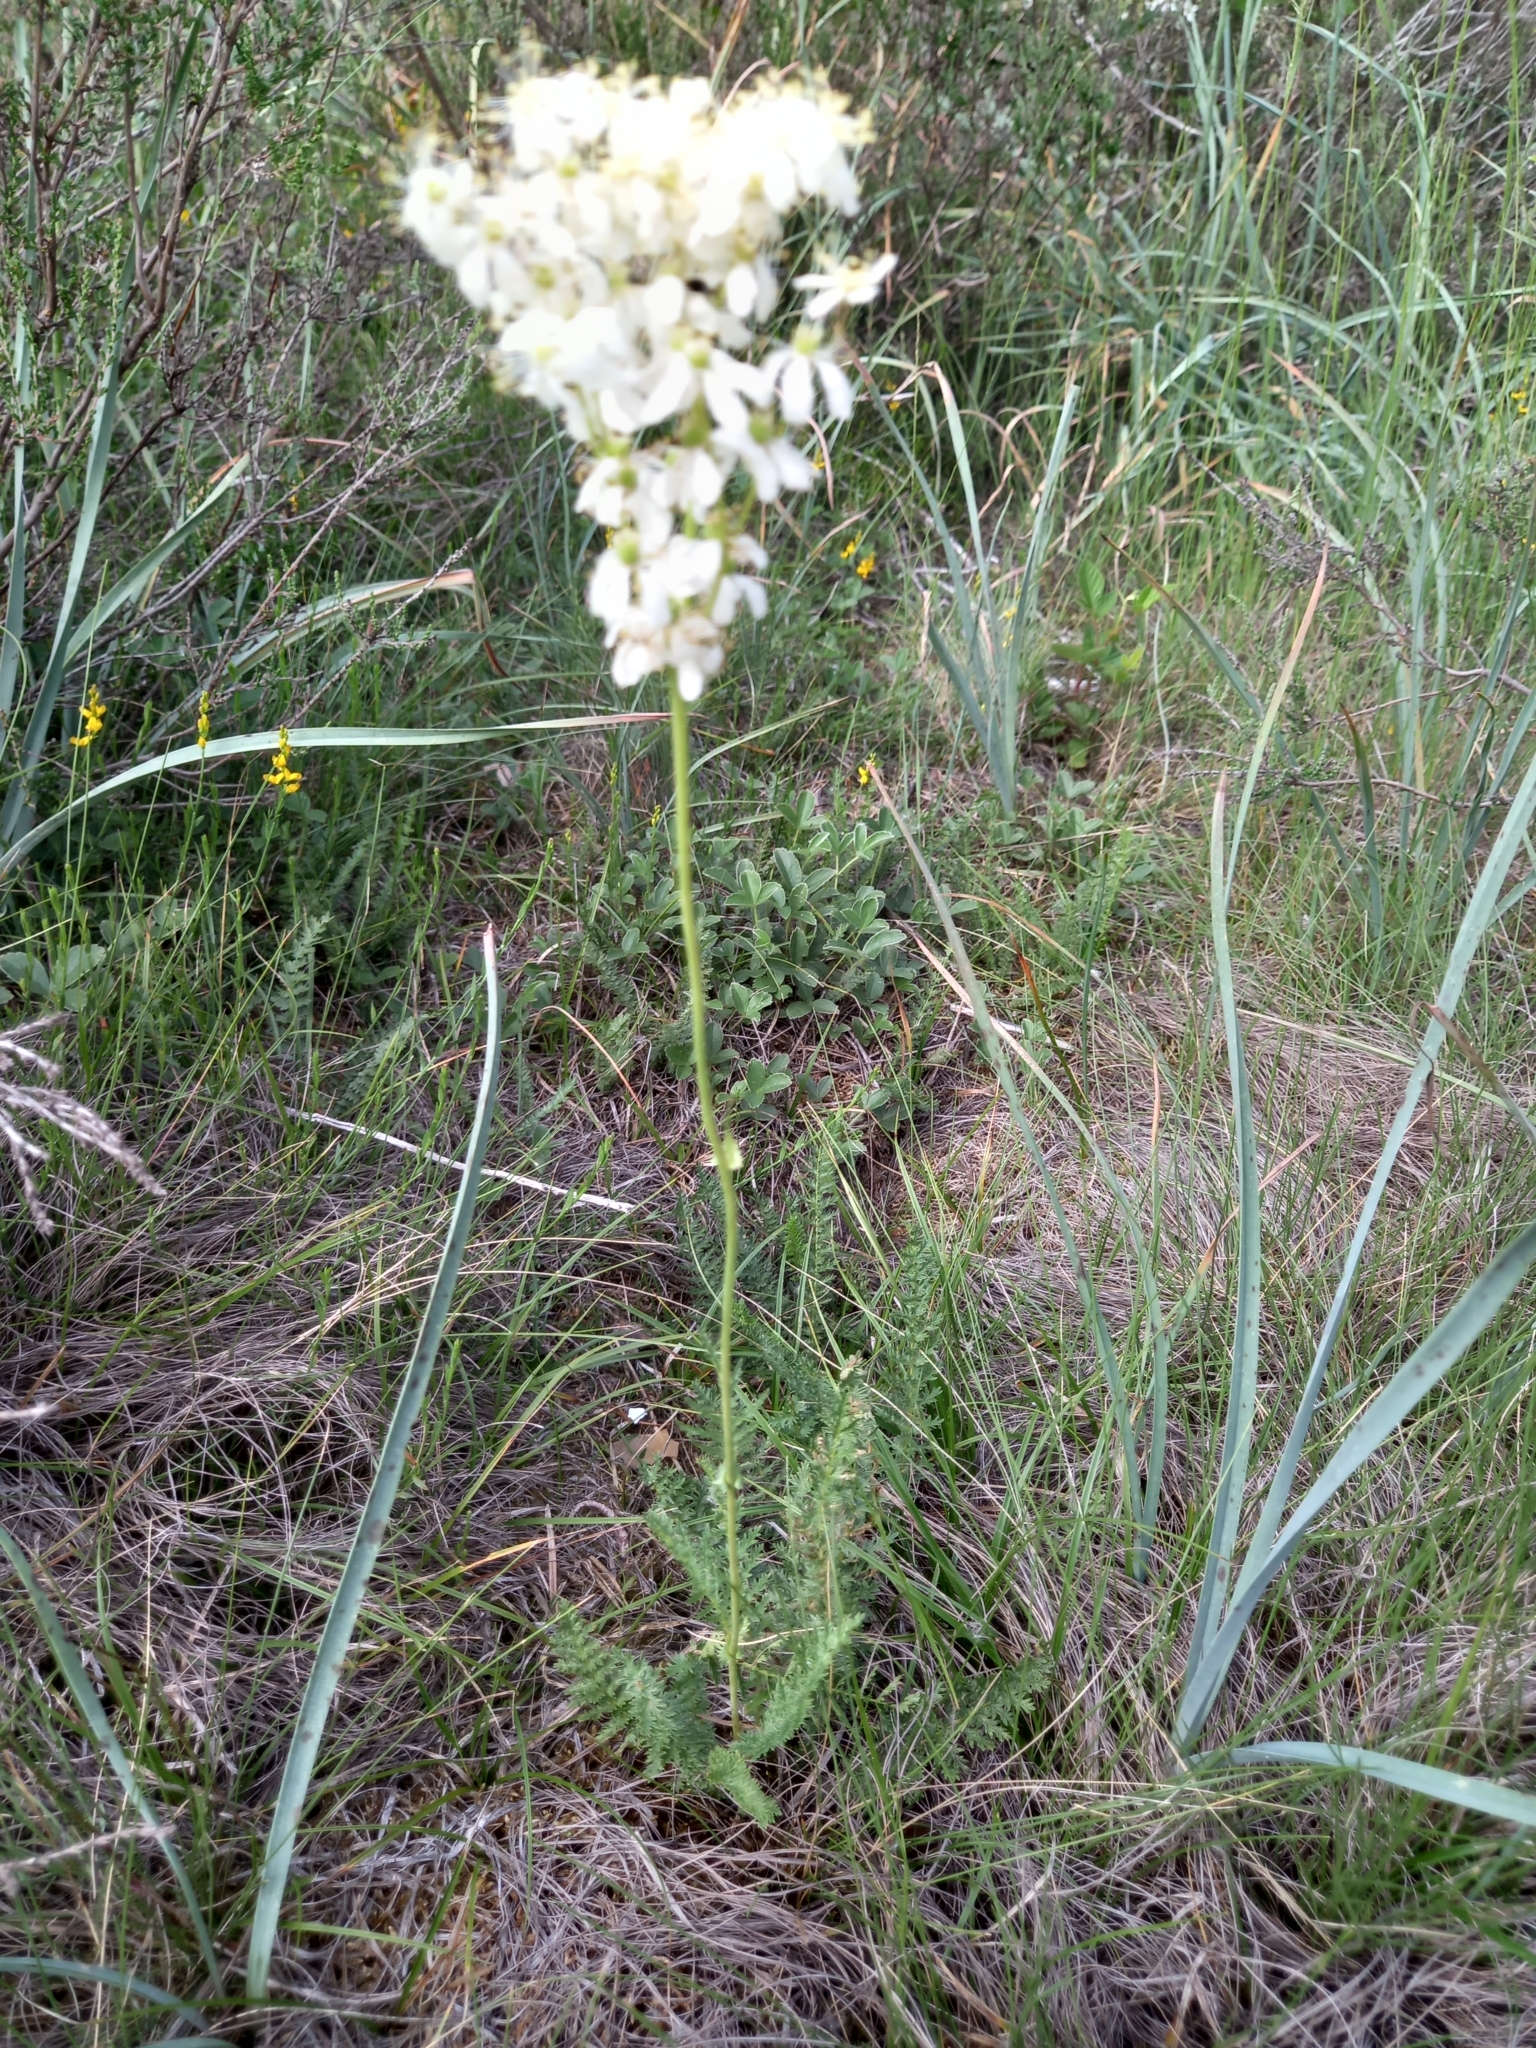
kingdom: Plantae
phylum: Tracheophyta
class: Magnoliopsida
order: Rosales
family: Rosaceae
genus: Filipendula
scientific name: Filipendula vulgaris
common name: Dropwort
